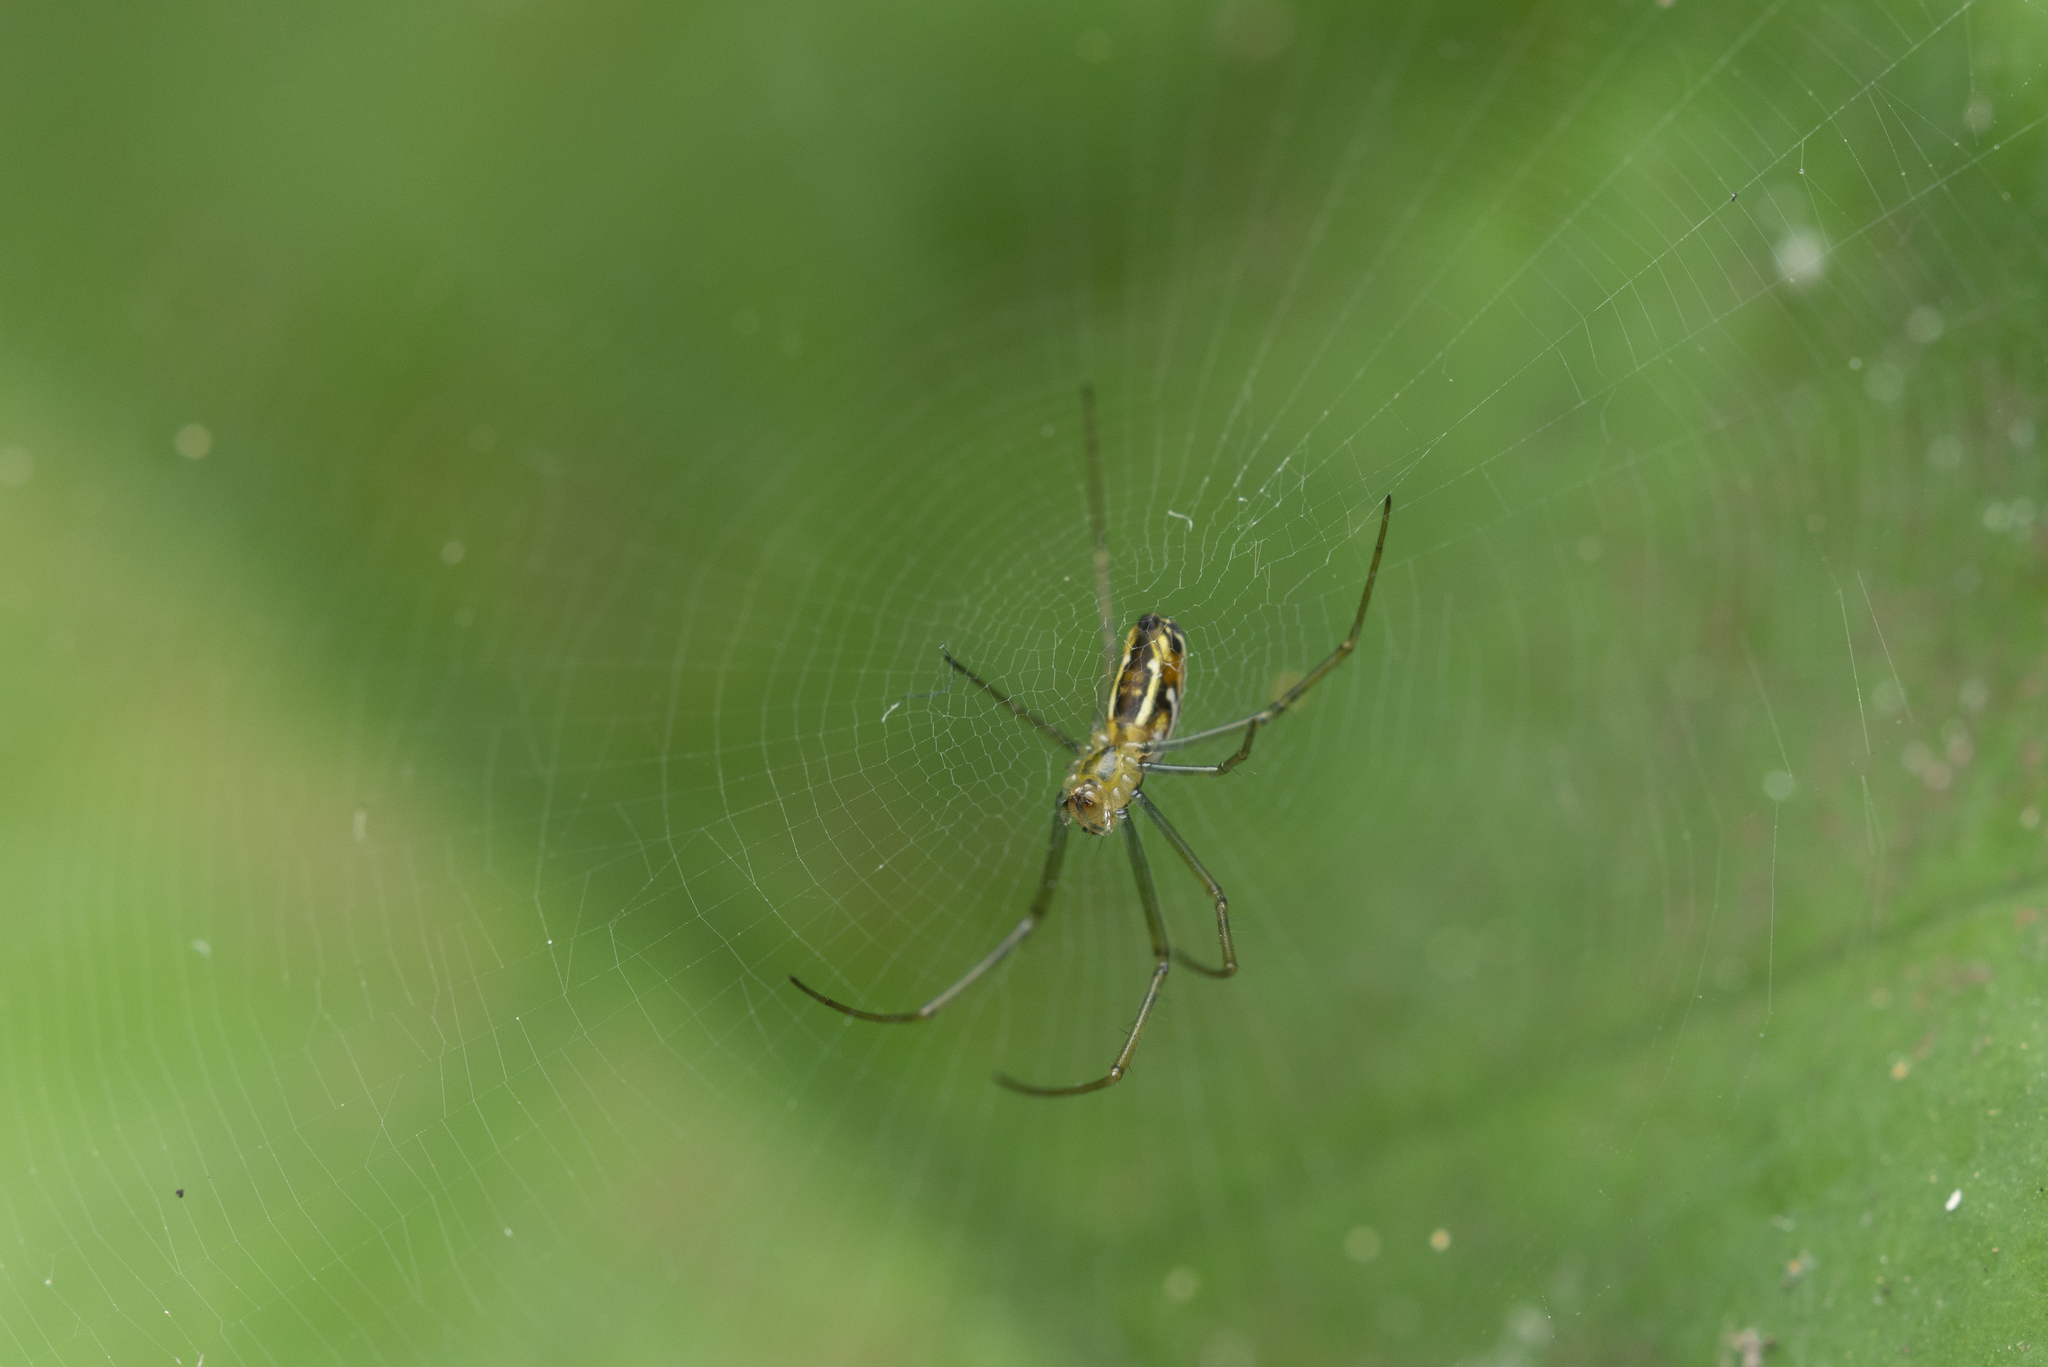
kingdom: Animalia
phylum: Arthropoda
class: Arachnida
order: Araneae
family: Araneidae
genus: Nephila
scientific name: Nephila pilipes
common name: Giant golden orb weaver
